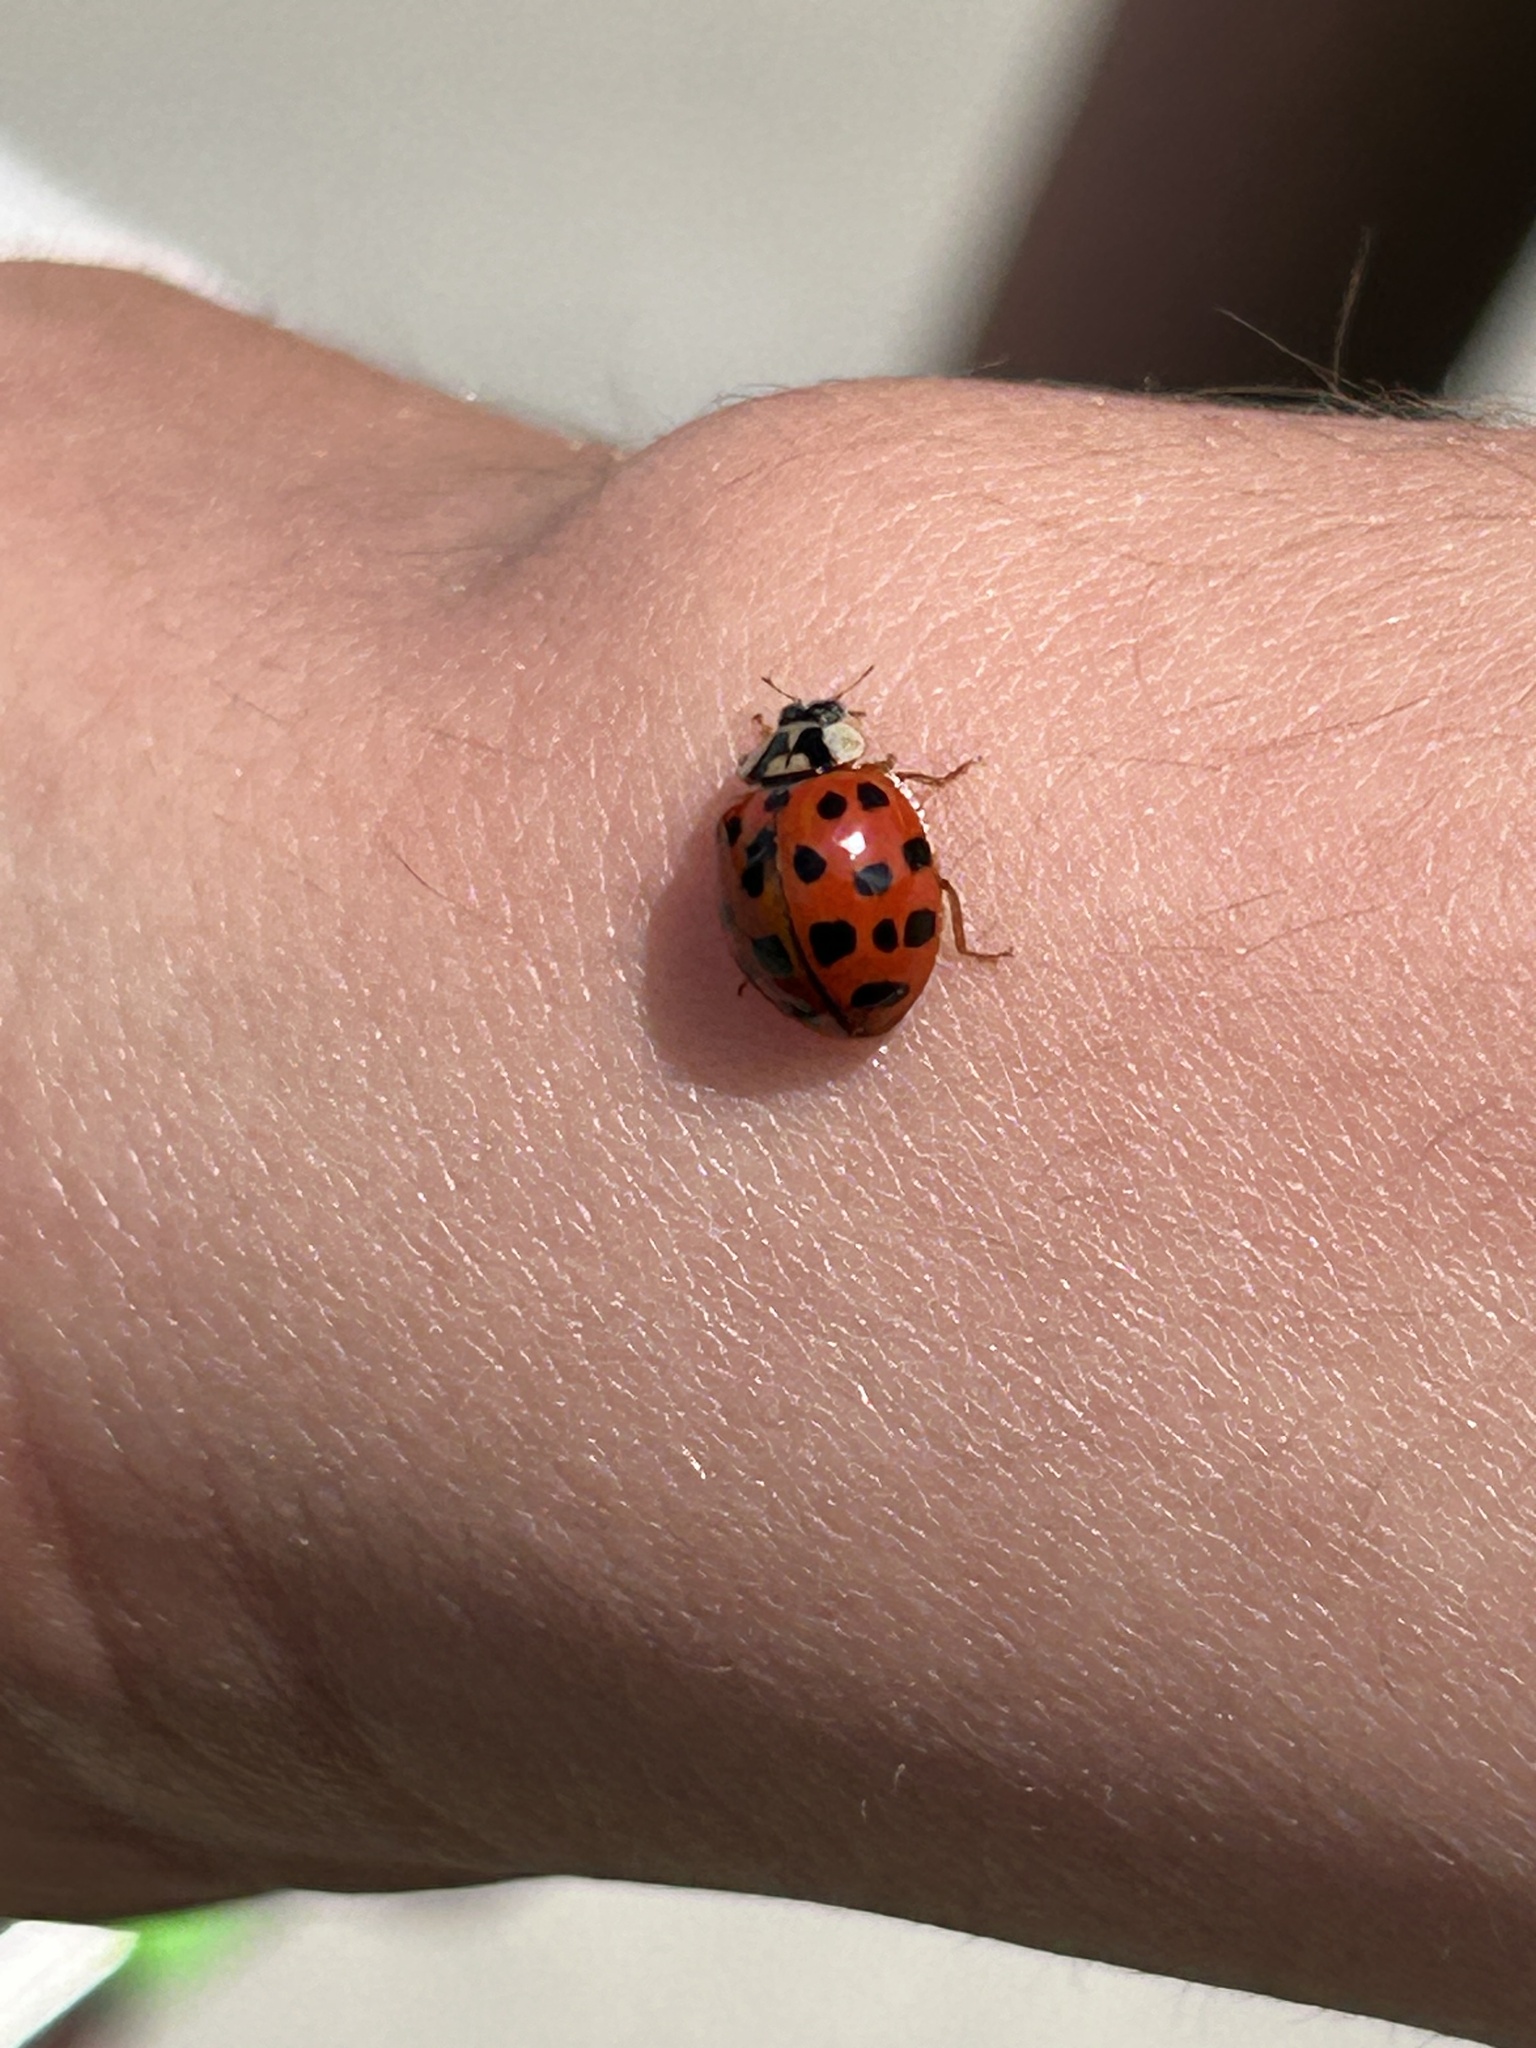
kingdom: Animalia
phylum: Arthropoda
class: Insecta
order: Coleoptera
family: Coccinellidae
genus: Harmonia
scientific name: Harmonia axyridis
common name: Harlequin ladybird
